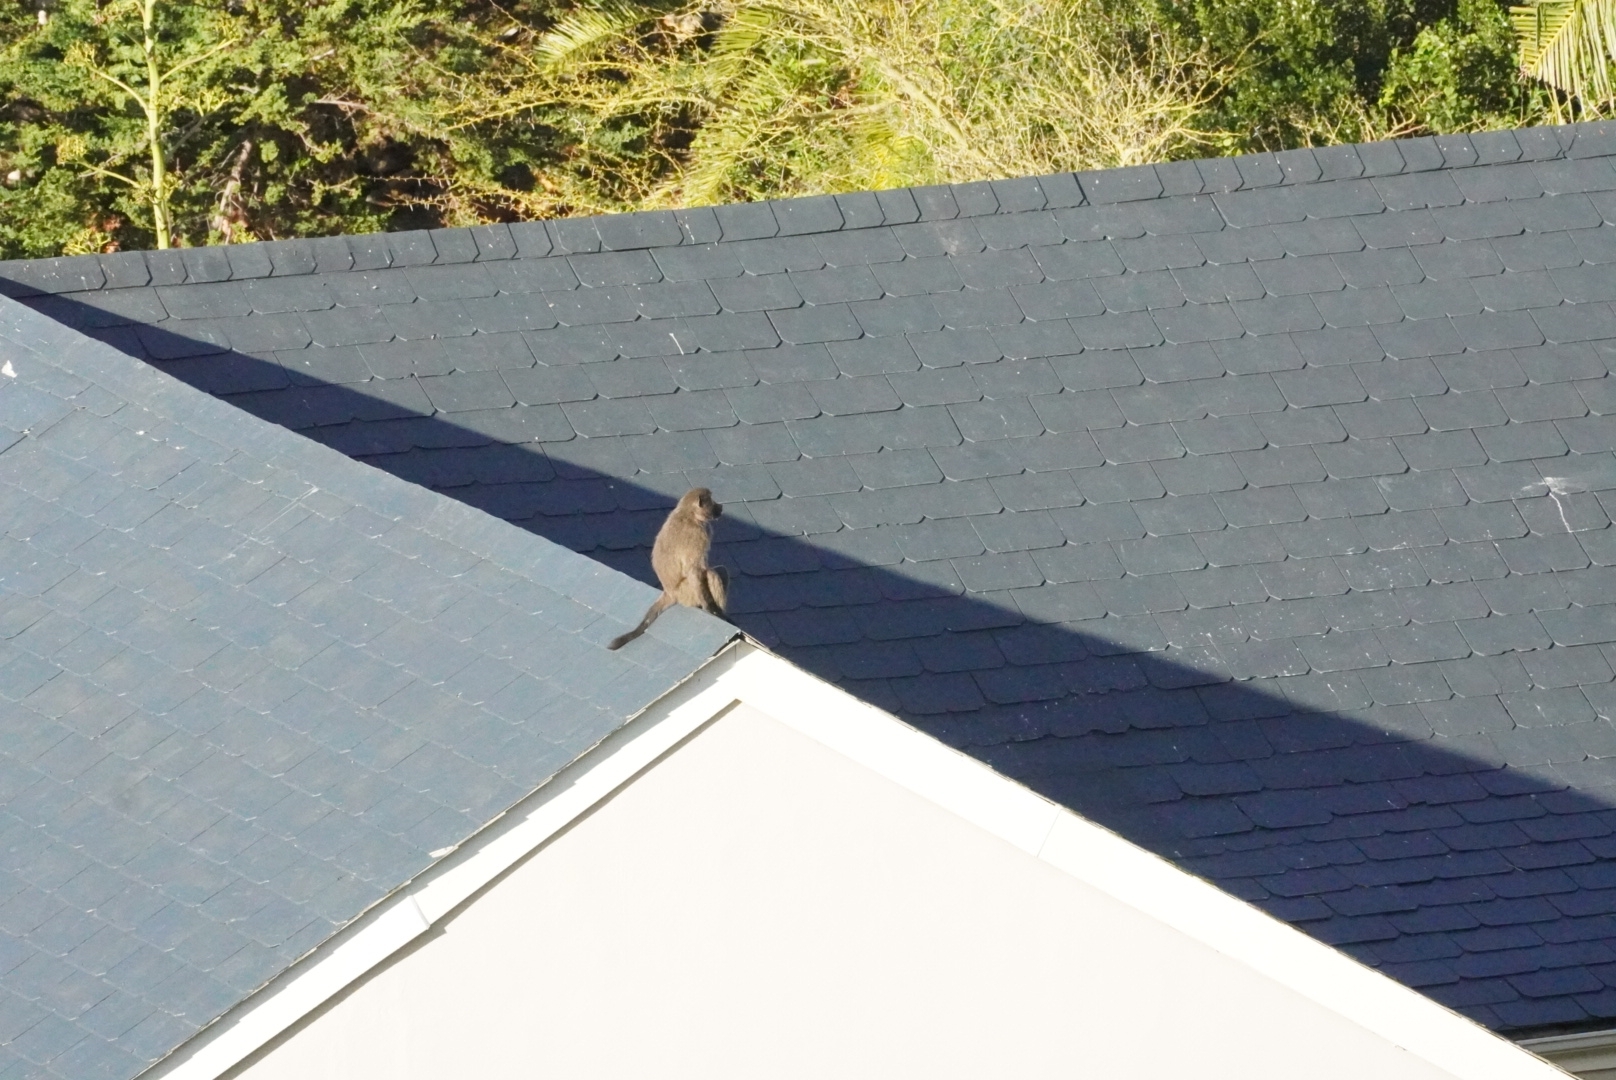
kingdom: Animalia
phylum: Chordata
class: Mammalia
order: Primates
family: Cercopithecidae
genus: Papio
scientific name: Papio ursinus
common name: Chacma baboon
